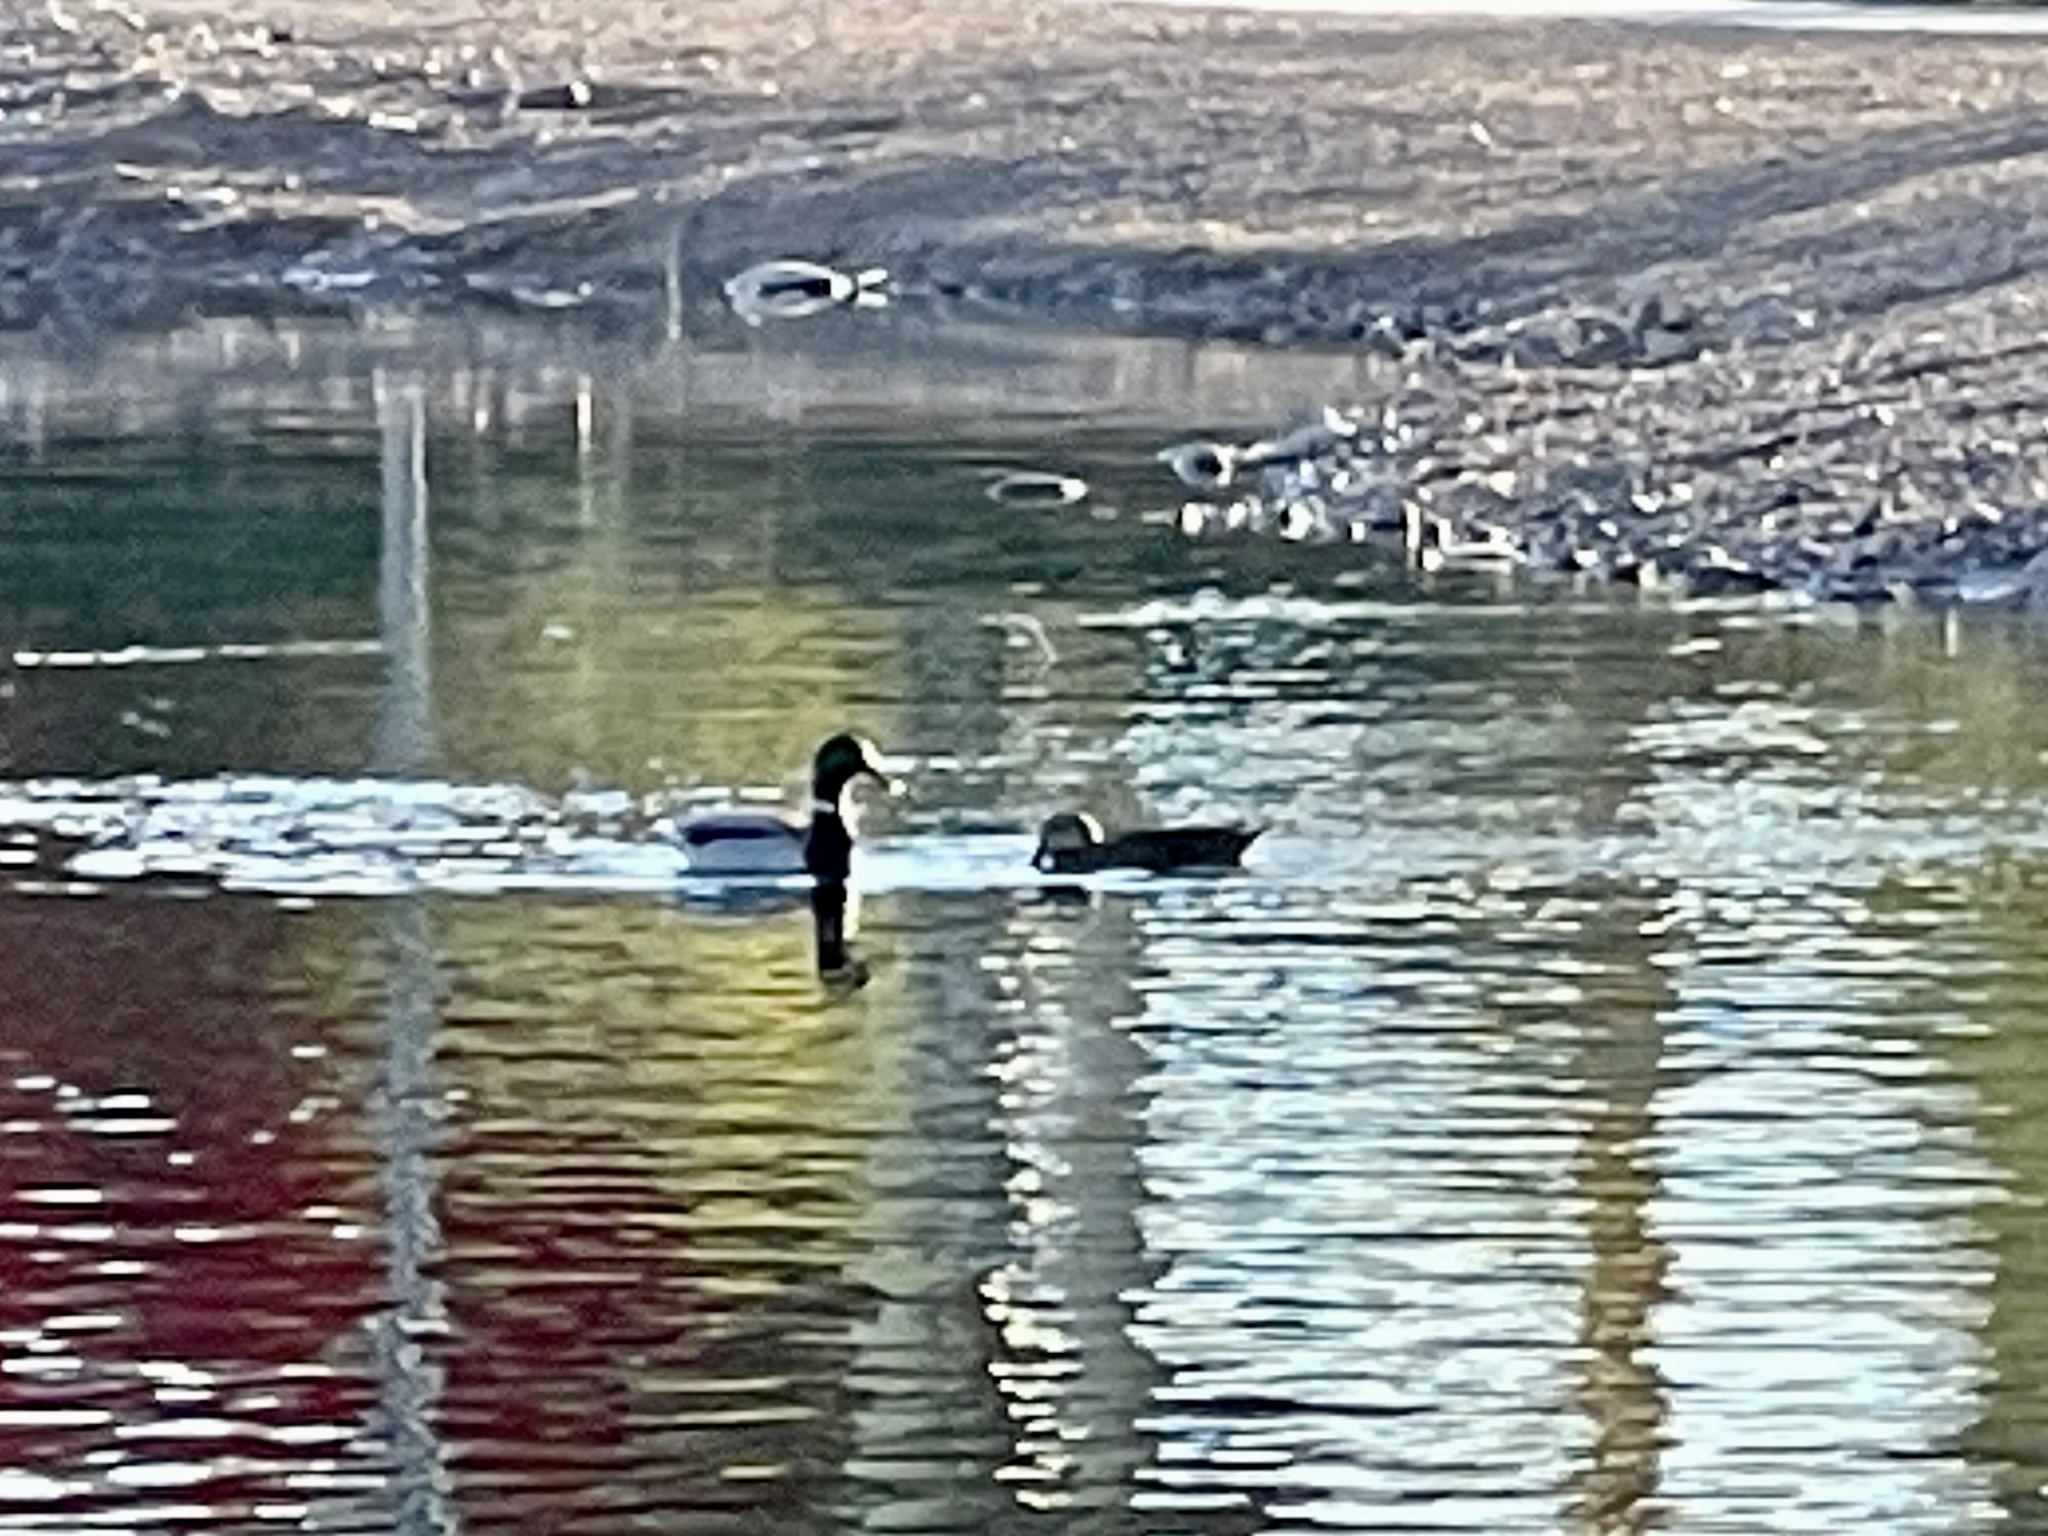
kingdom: Animalia
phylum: Chordata
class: Aves
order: Anseriformes
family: Anatidae
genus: Anas
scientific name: Anas platyrhynchos
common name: Mallard
